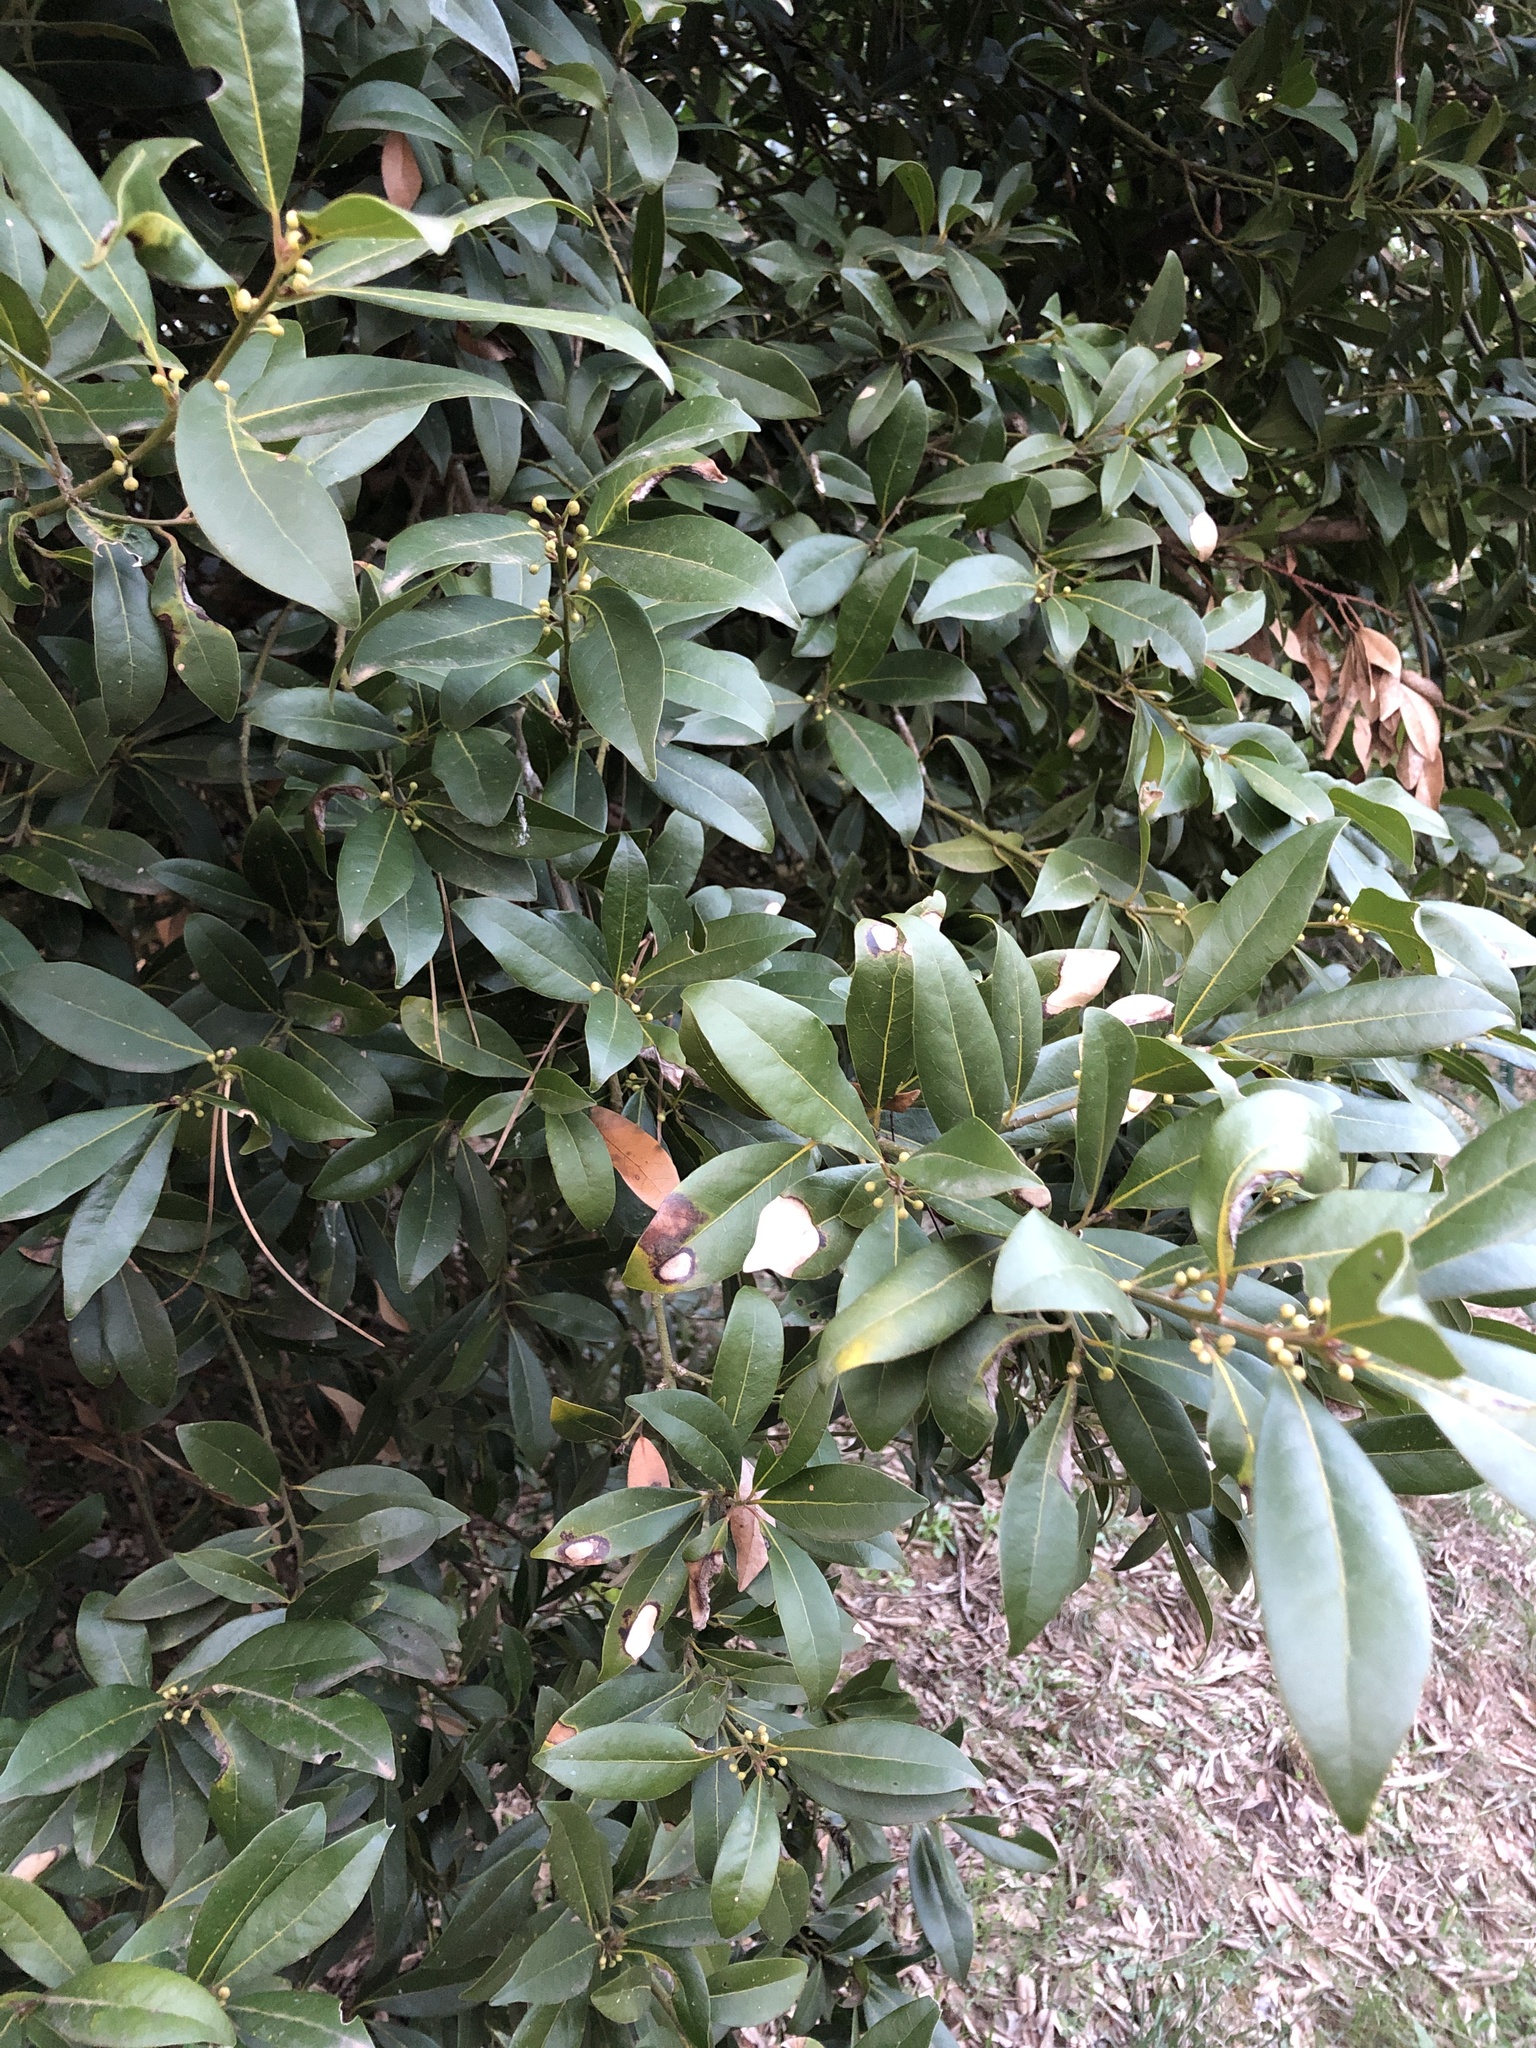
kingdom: Plantae
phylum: Tracheophyta
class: Magnoliopsida
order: Laurales
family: Lauraceae
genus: Laurus
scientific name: Laurus nobilis
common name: Bay
